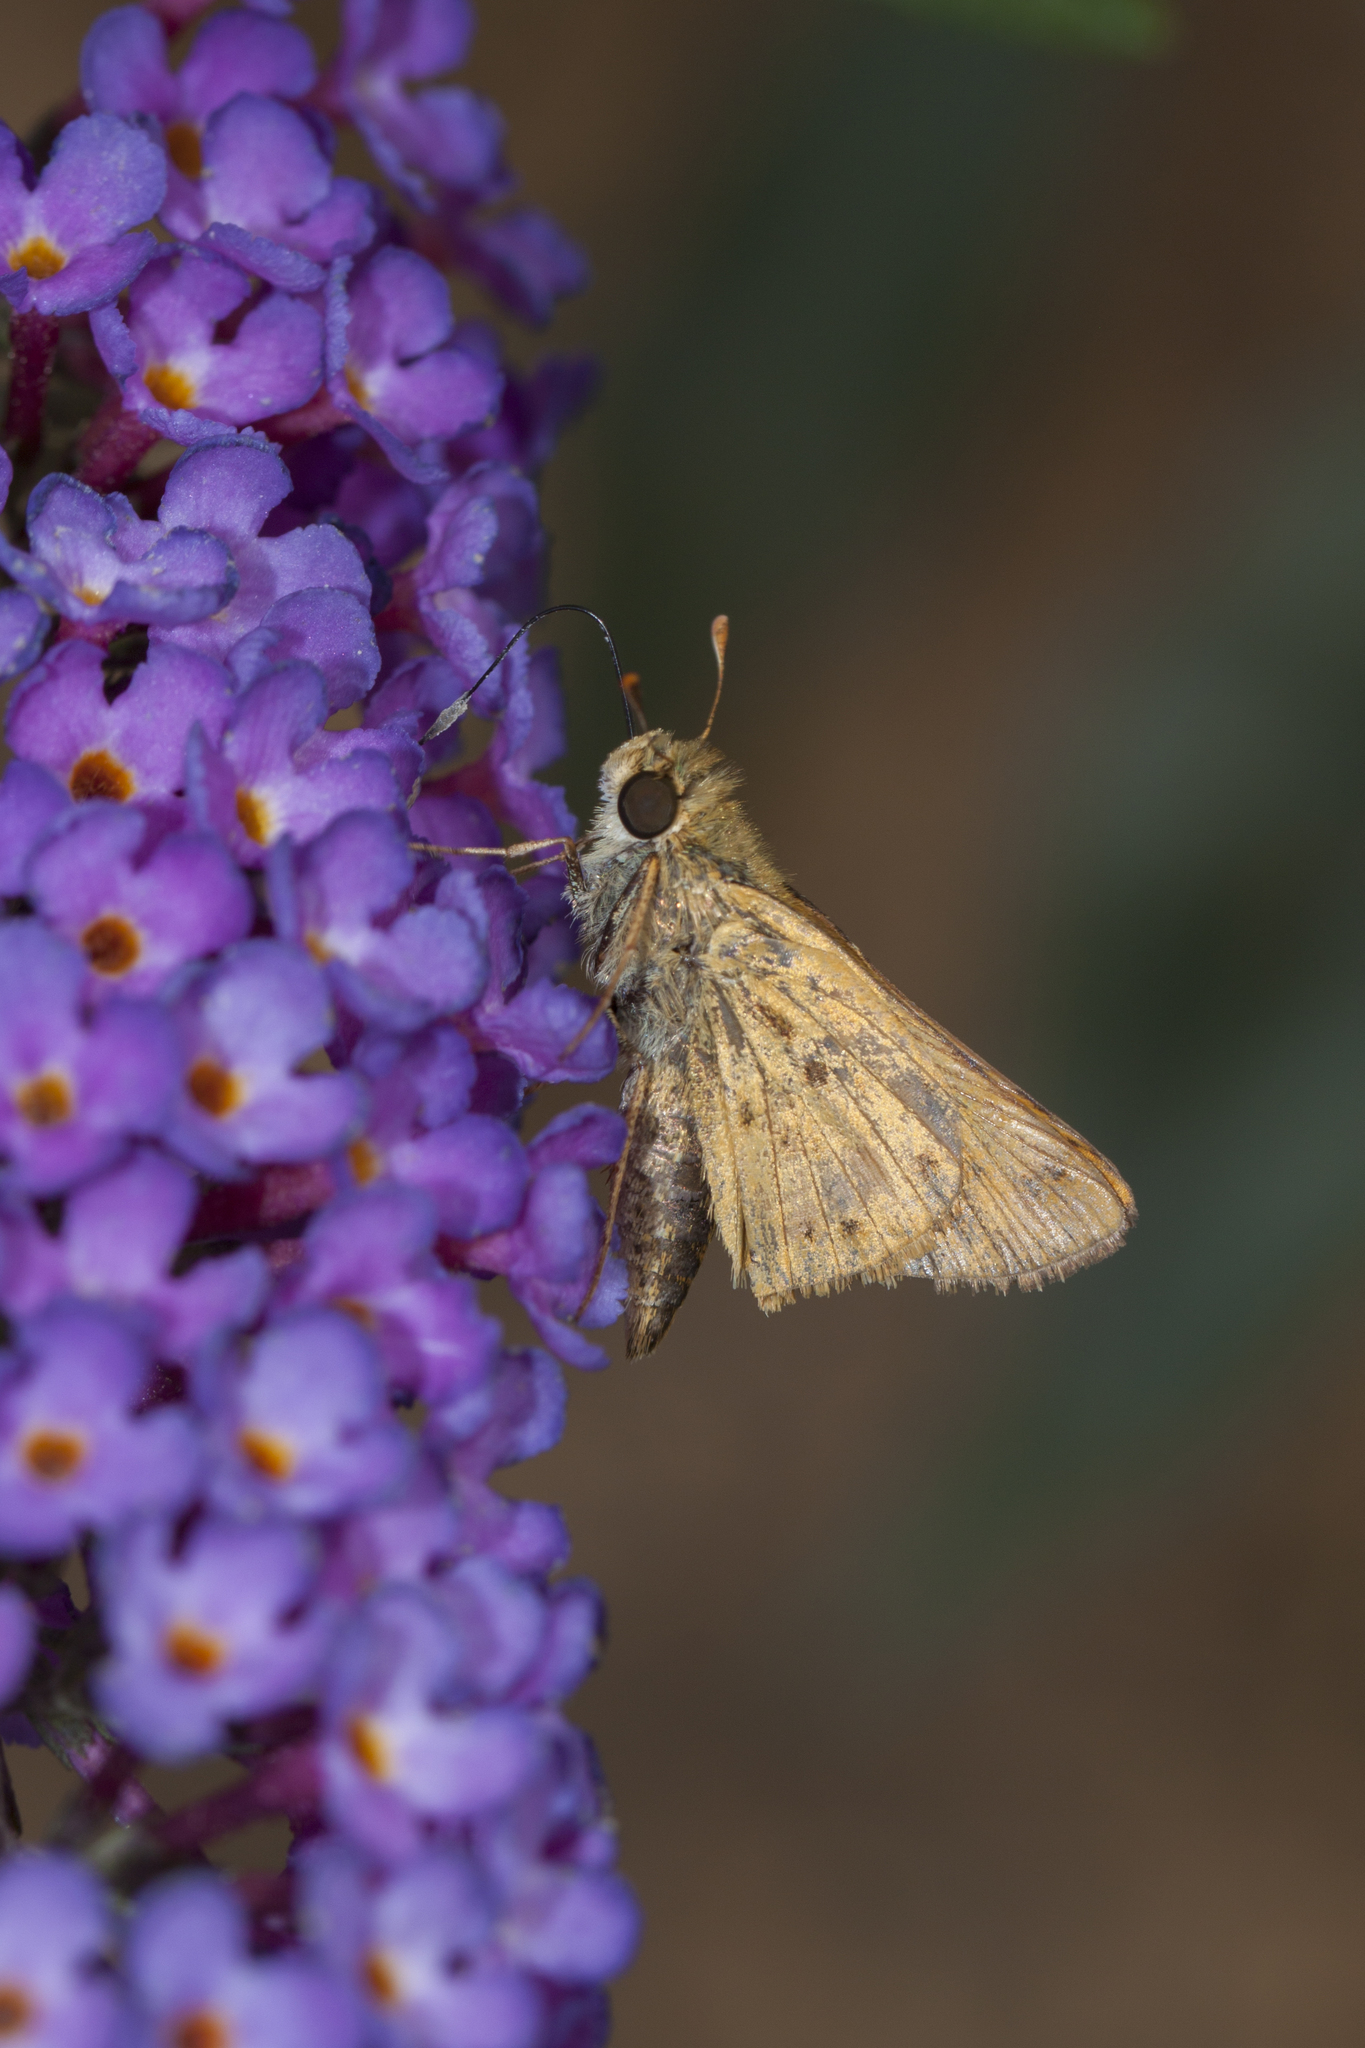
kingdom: Animalia
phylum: Arthropoda
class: Insecta
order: Lepidoptera
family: Hesperiidae
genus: Hylephila
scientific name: Hylephila phyleus
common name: Fiery skipper
